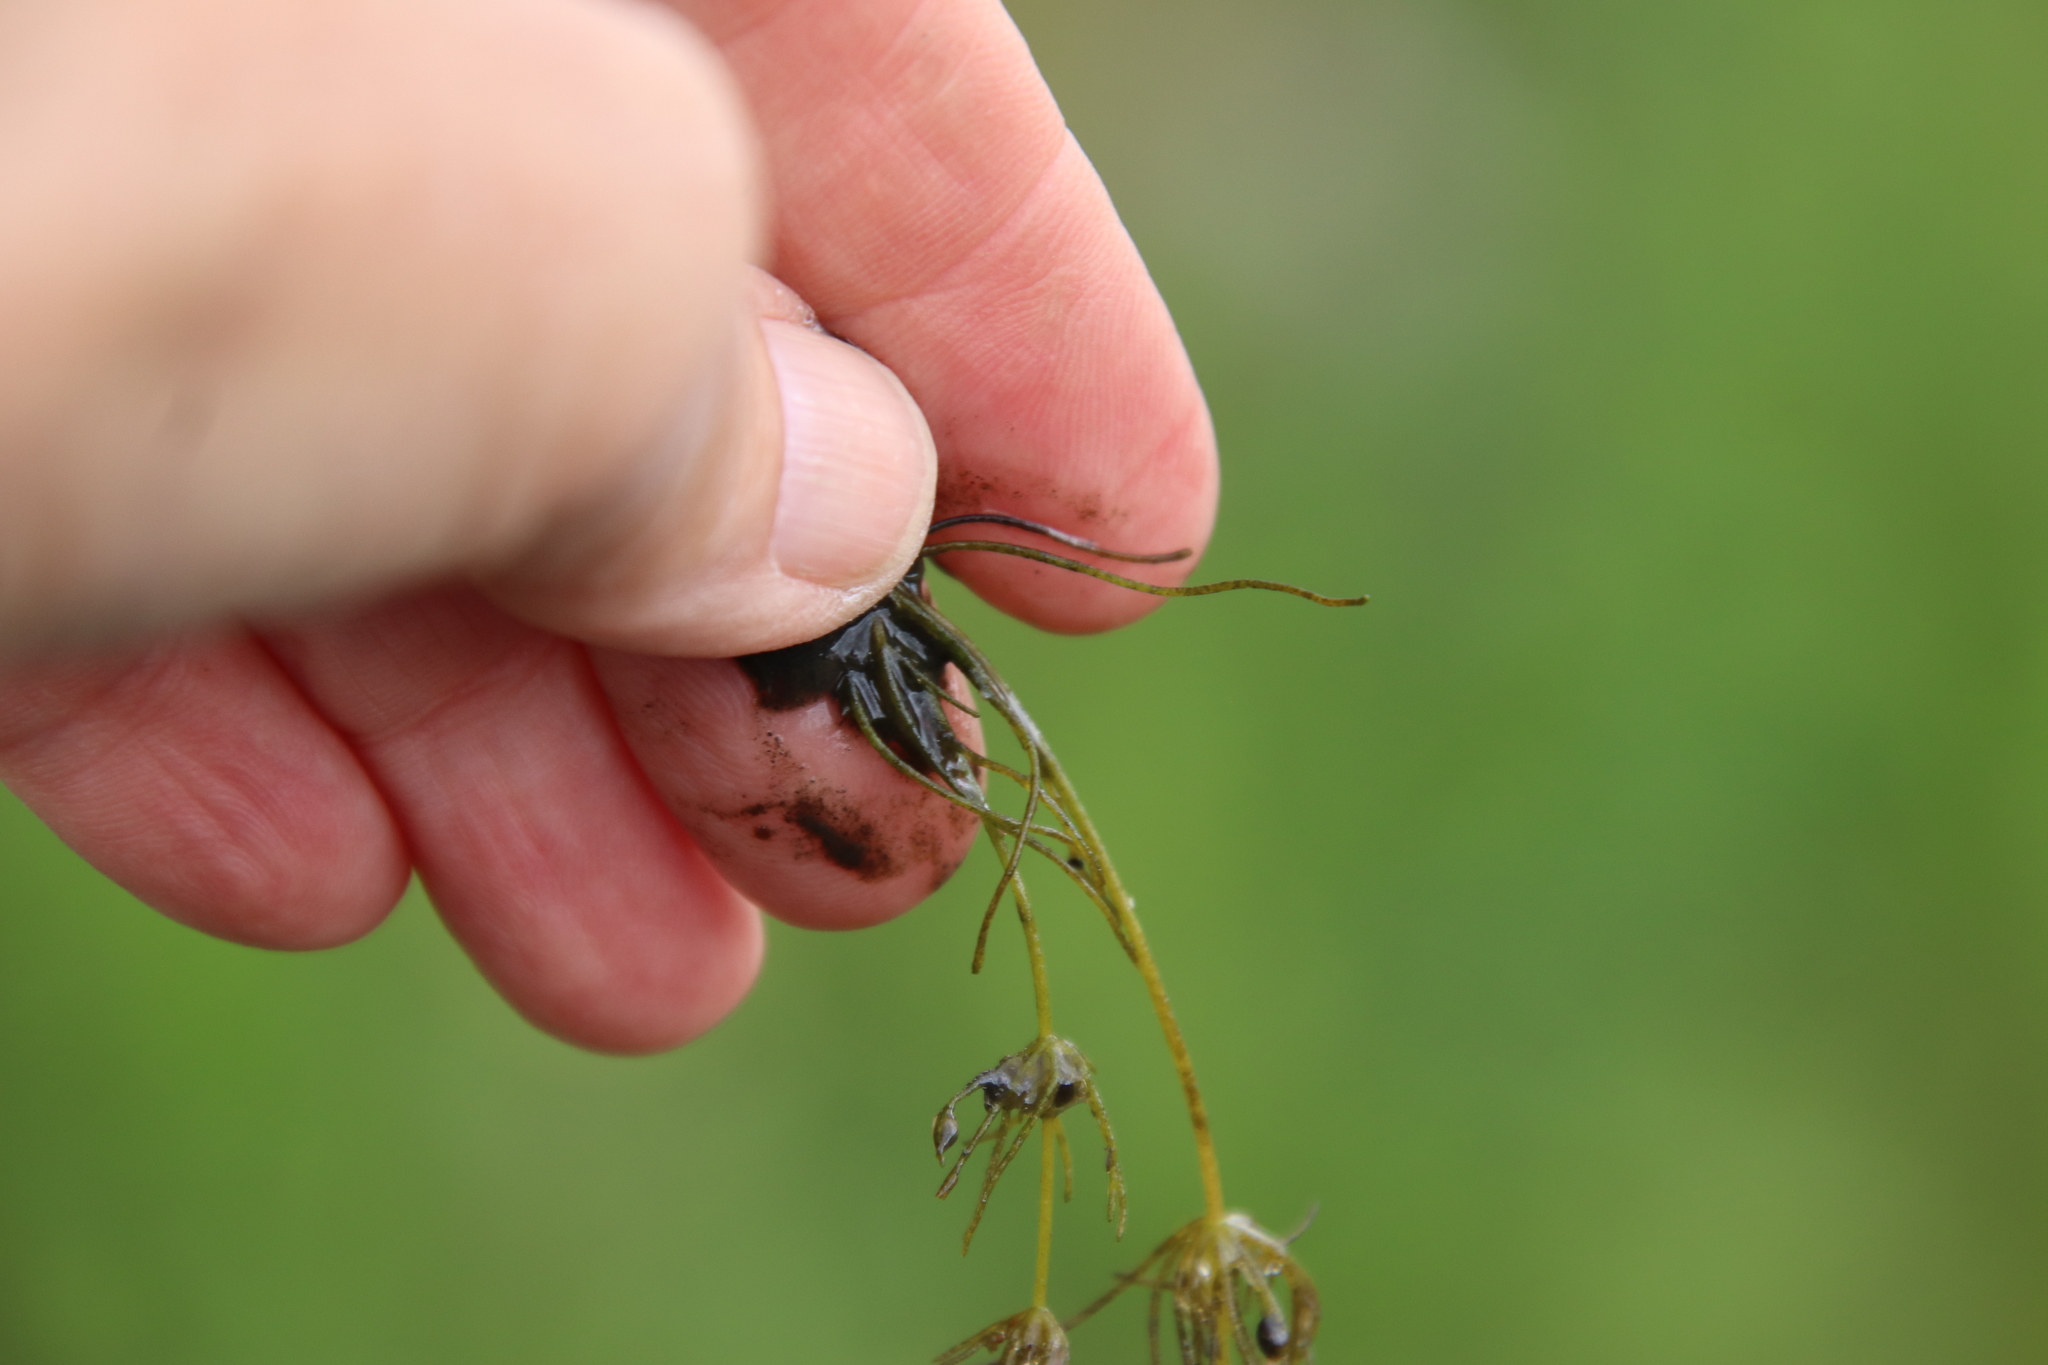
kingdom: Plantae
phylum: Charophyta
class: Charophyceae
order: Charales
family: Characeae
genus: Chara
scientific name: Chara vulgaris
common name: Common stonewort
